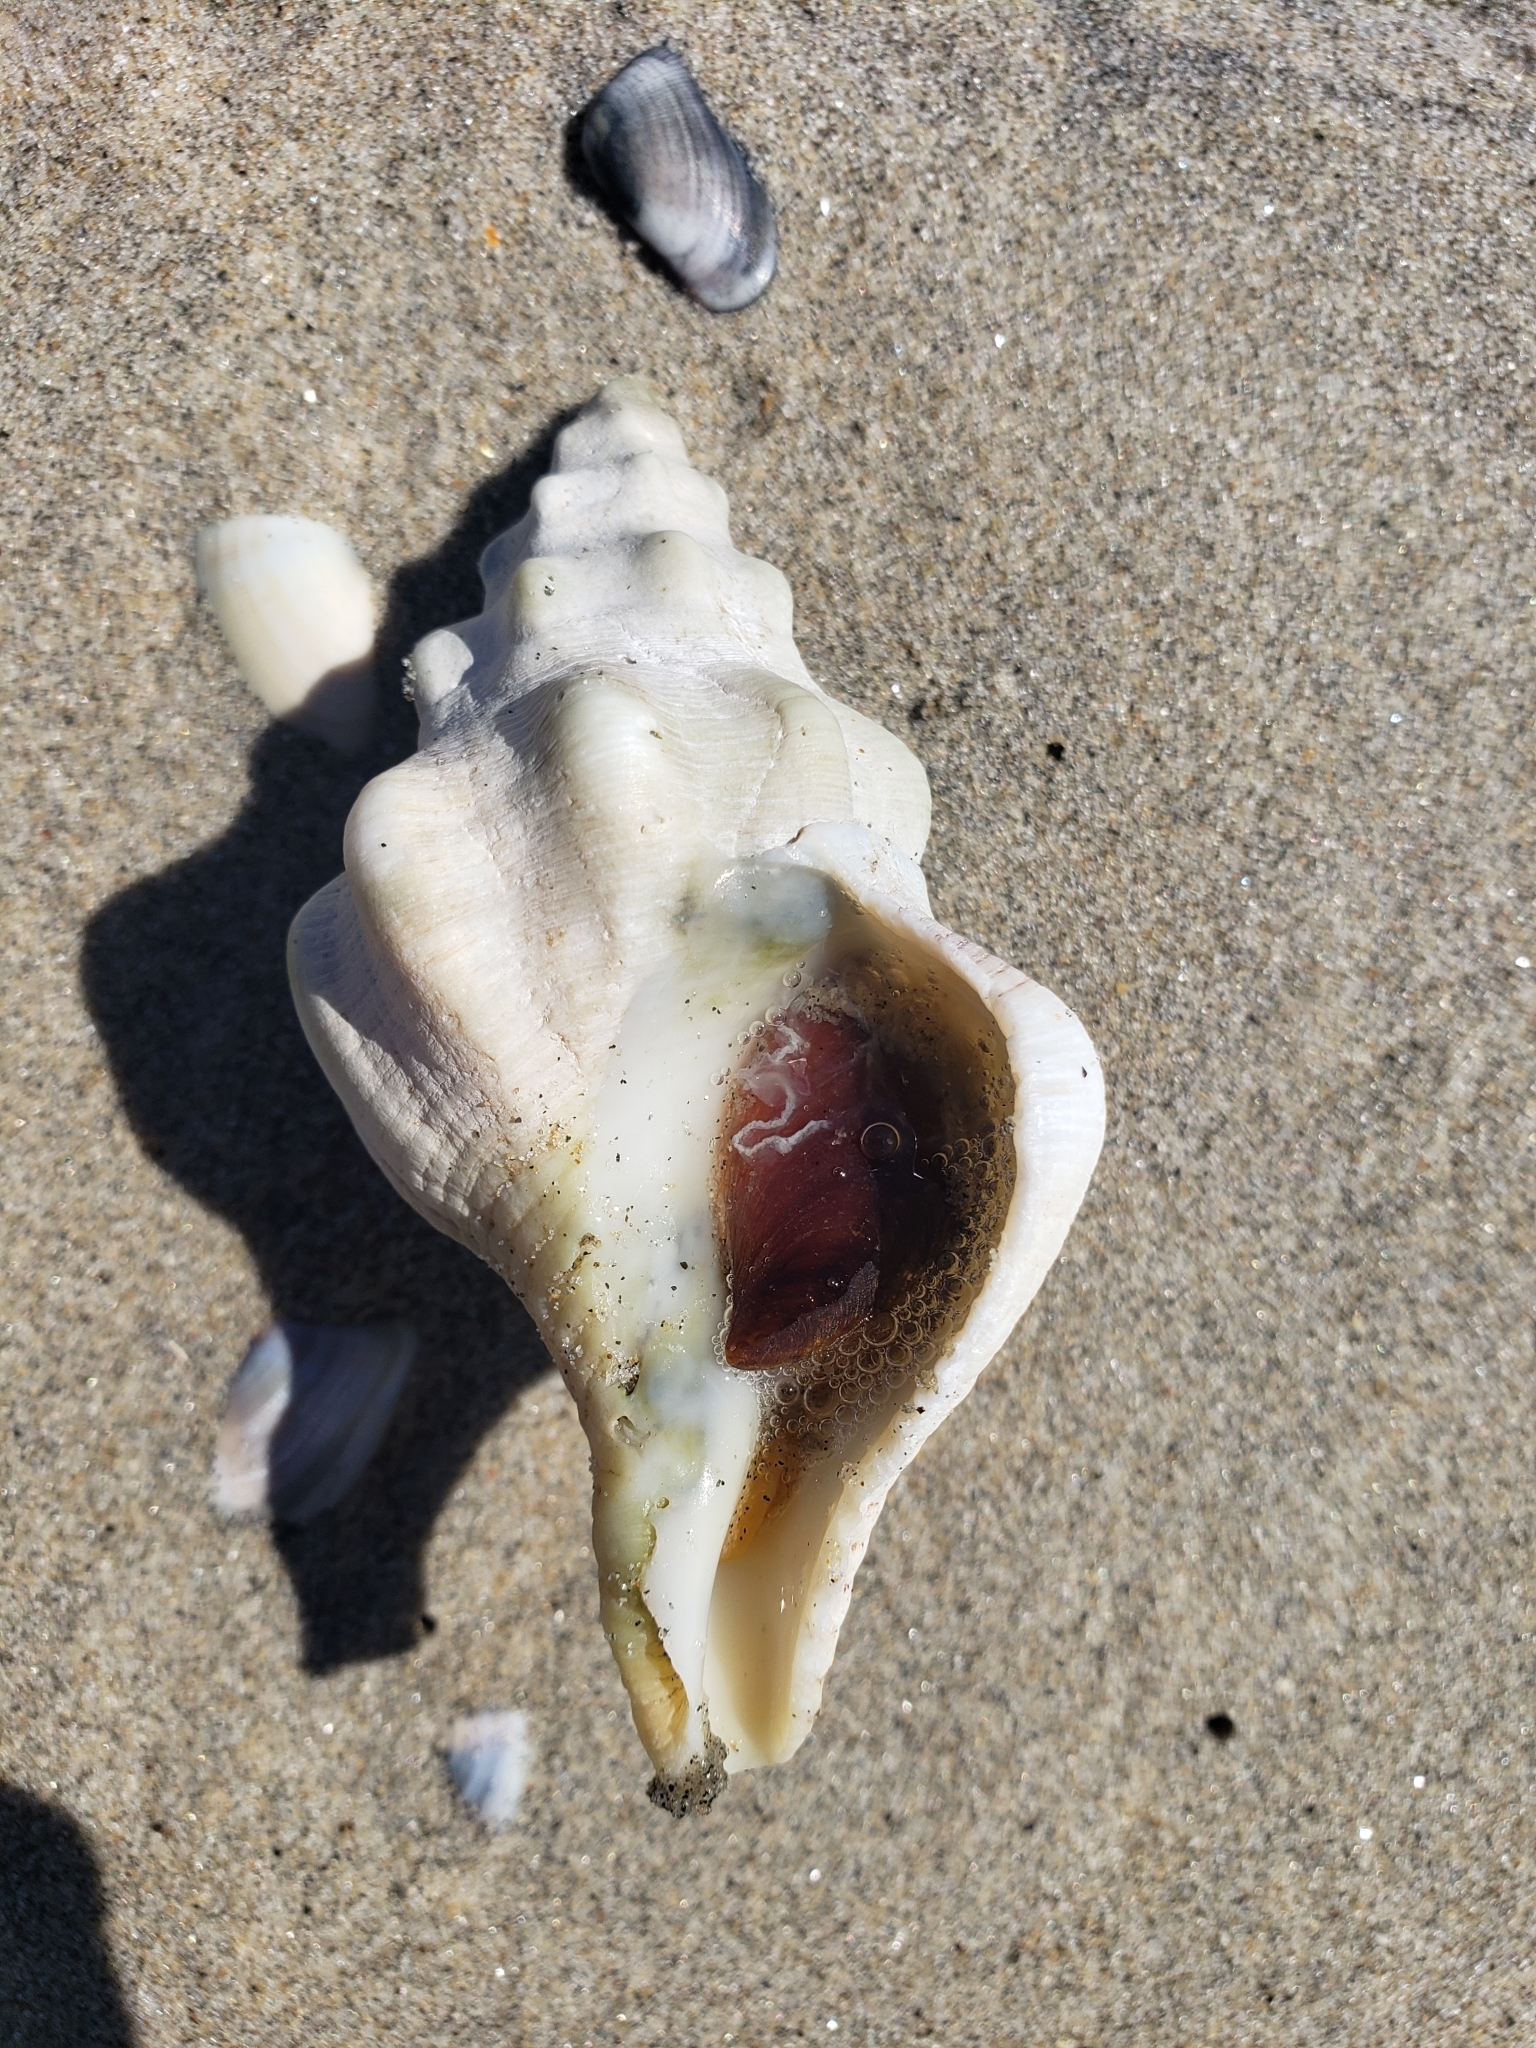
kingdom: Animalia
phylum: Mollusca
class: Gastropoda
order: Neogastropoda
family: Austrosiphonidae
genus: Kelletia
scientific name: Kelletia kelletii
